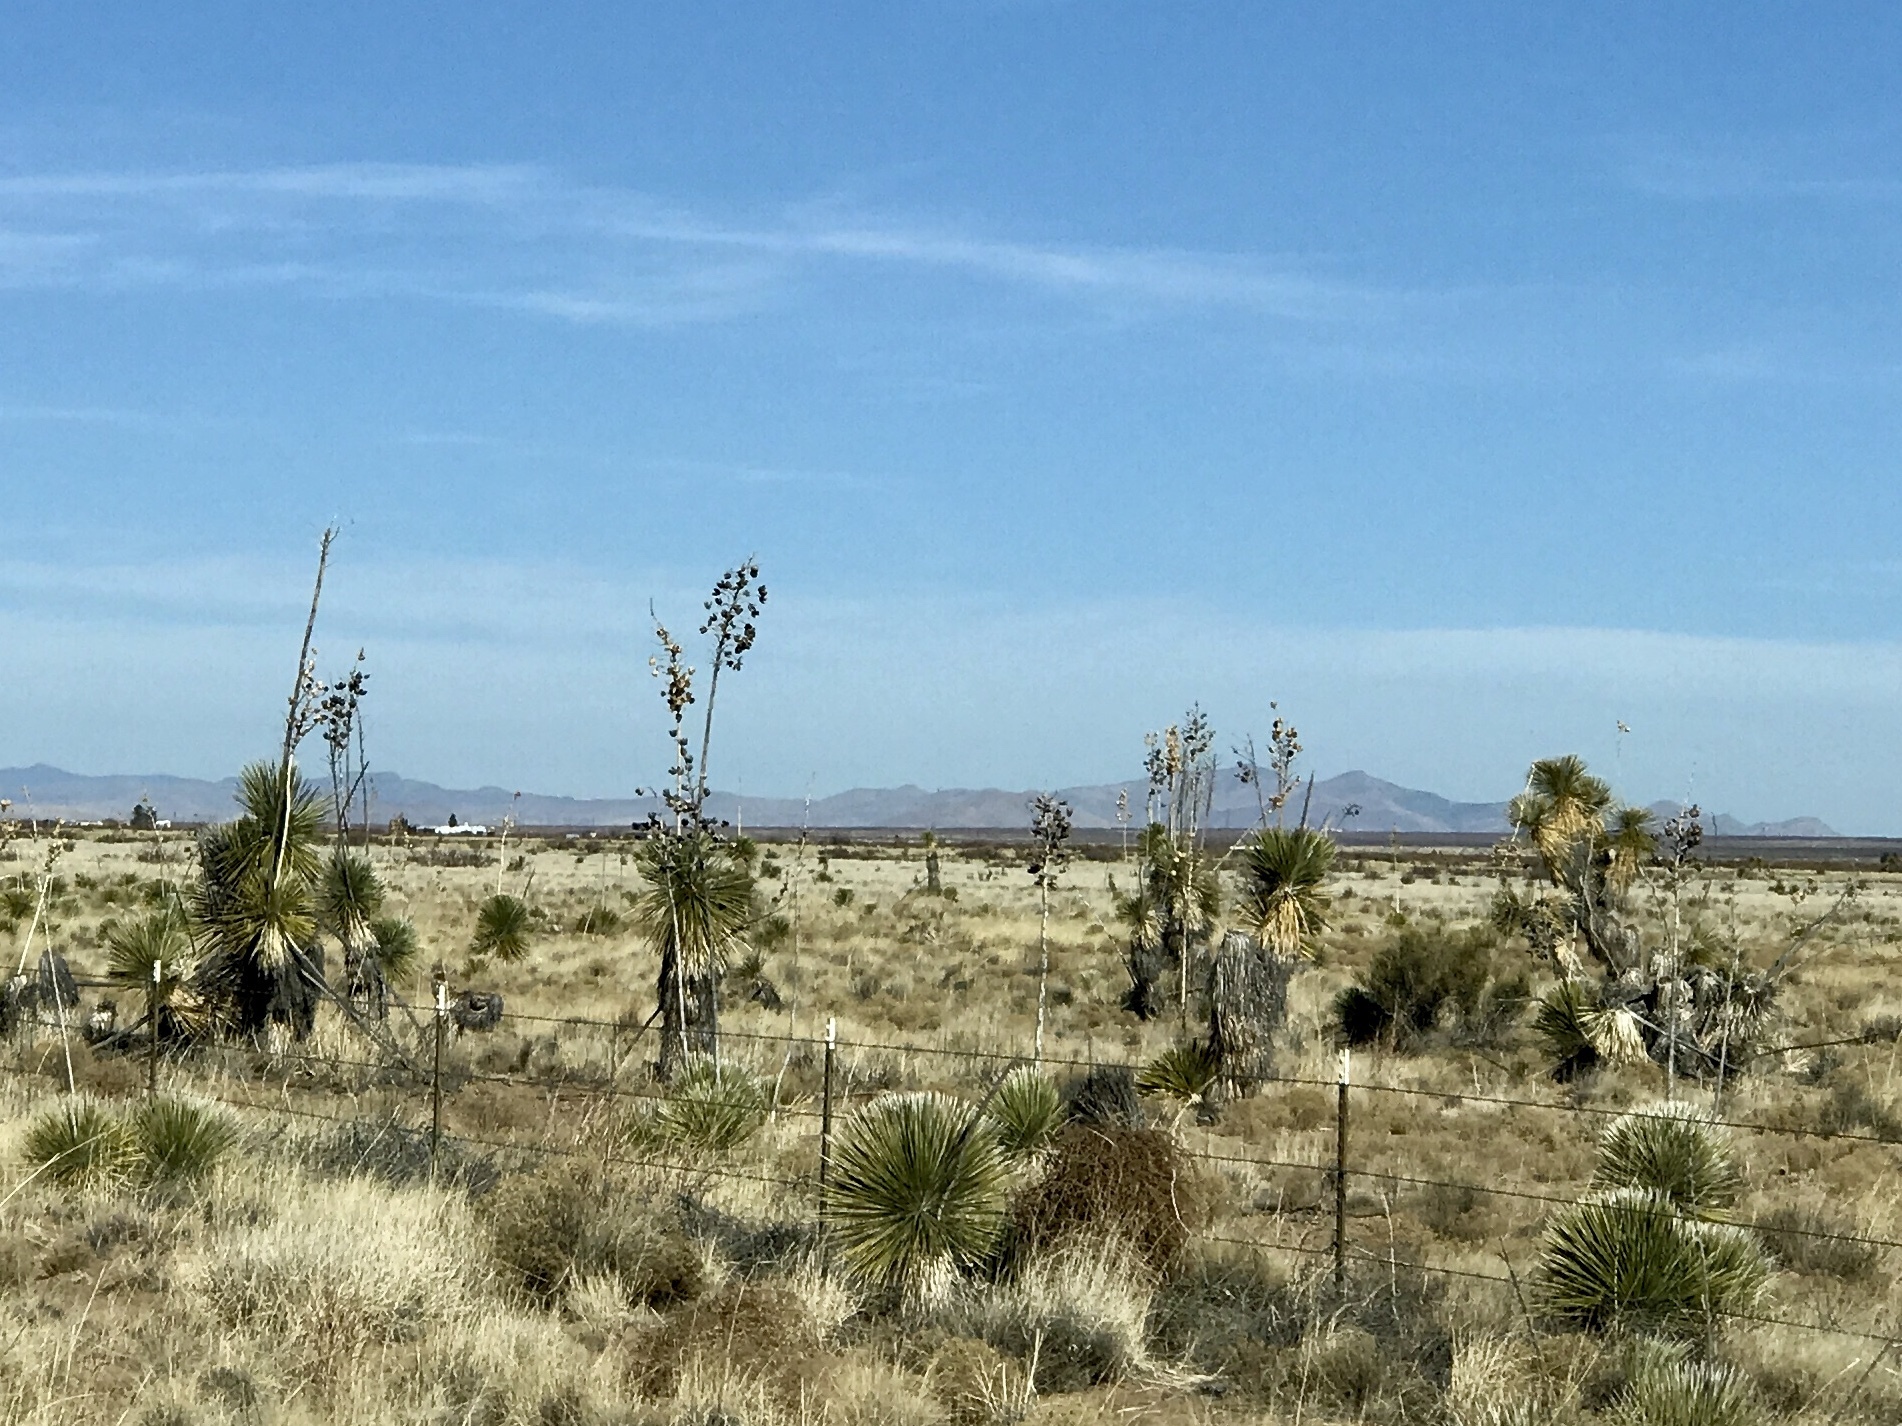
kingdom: Plantae
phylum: Tracheophyta
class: Liliopsida
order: Asparagales
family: Asparagaceae
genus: Yucca
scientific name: Yucca elata
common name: Palmella
